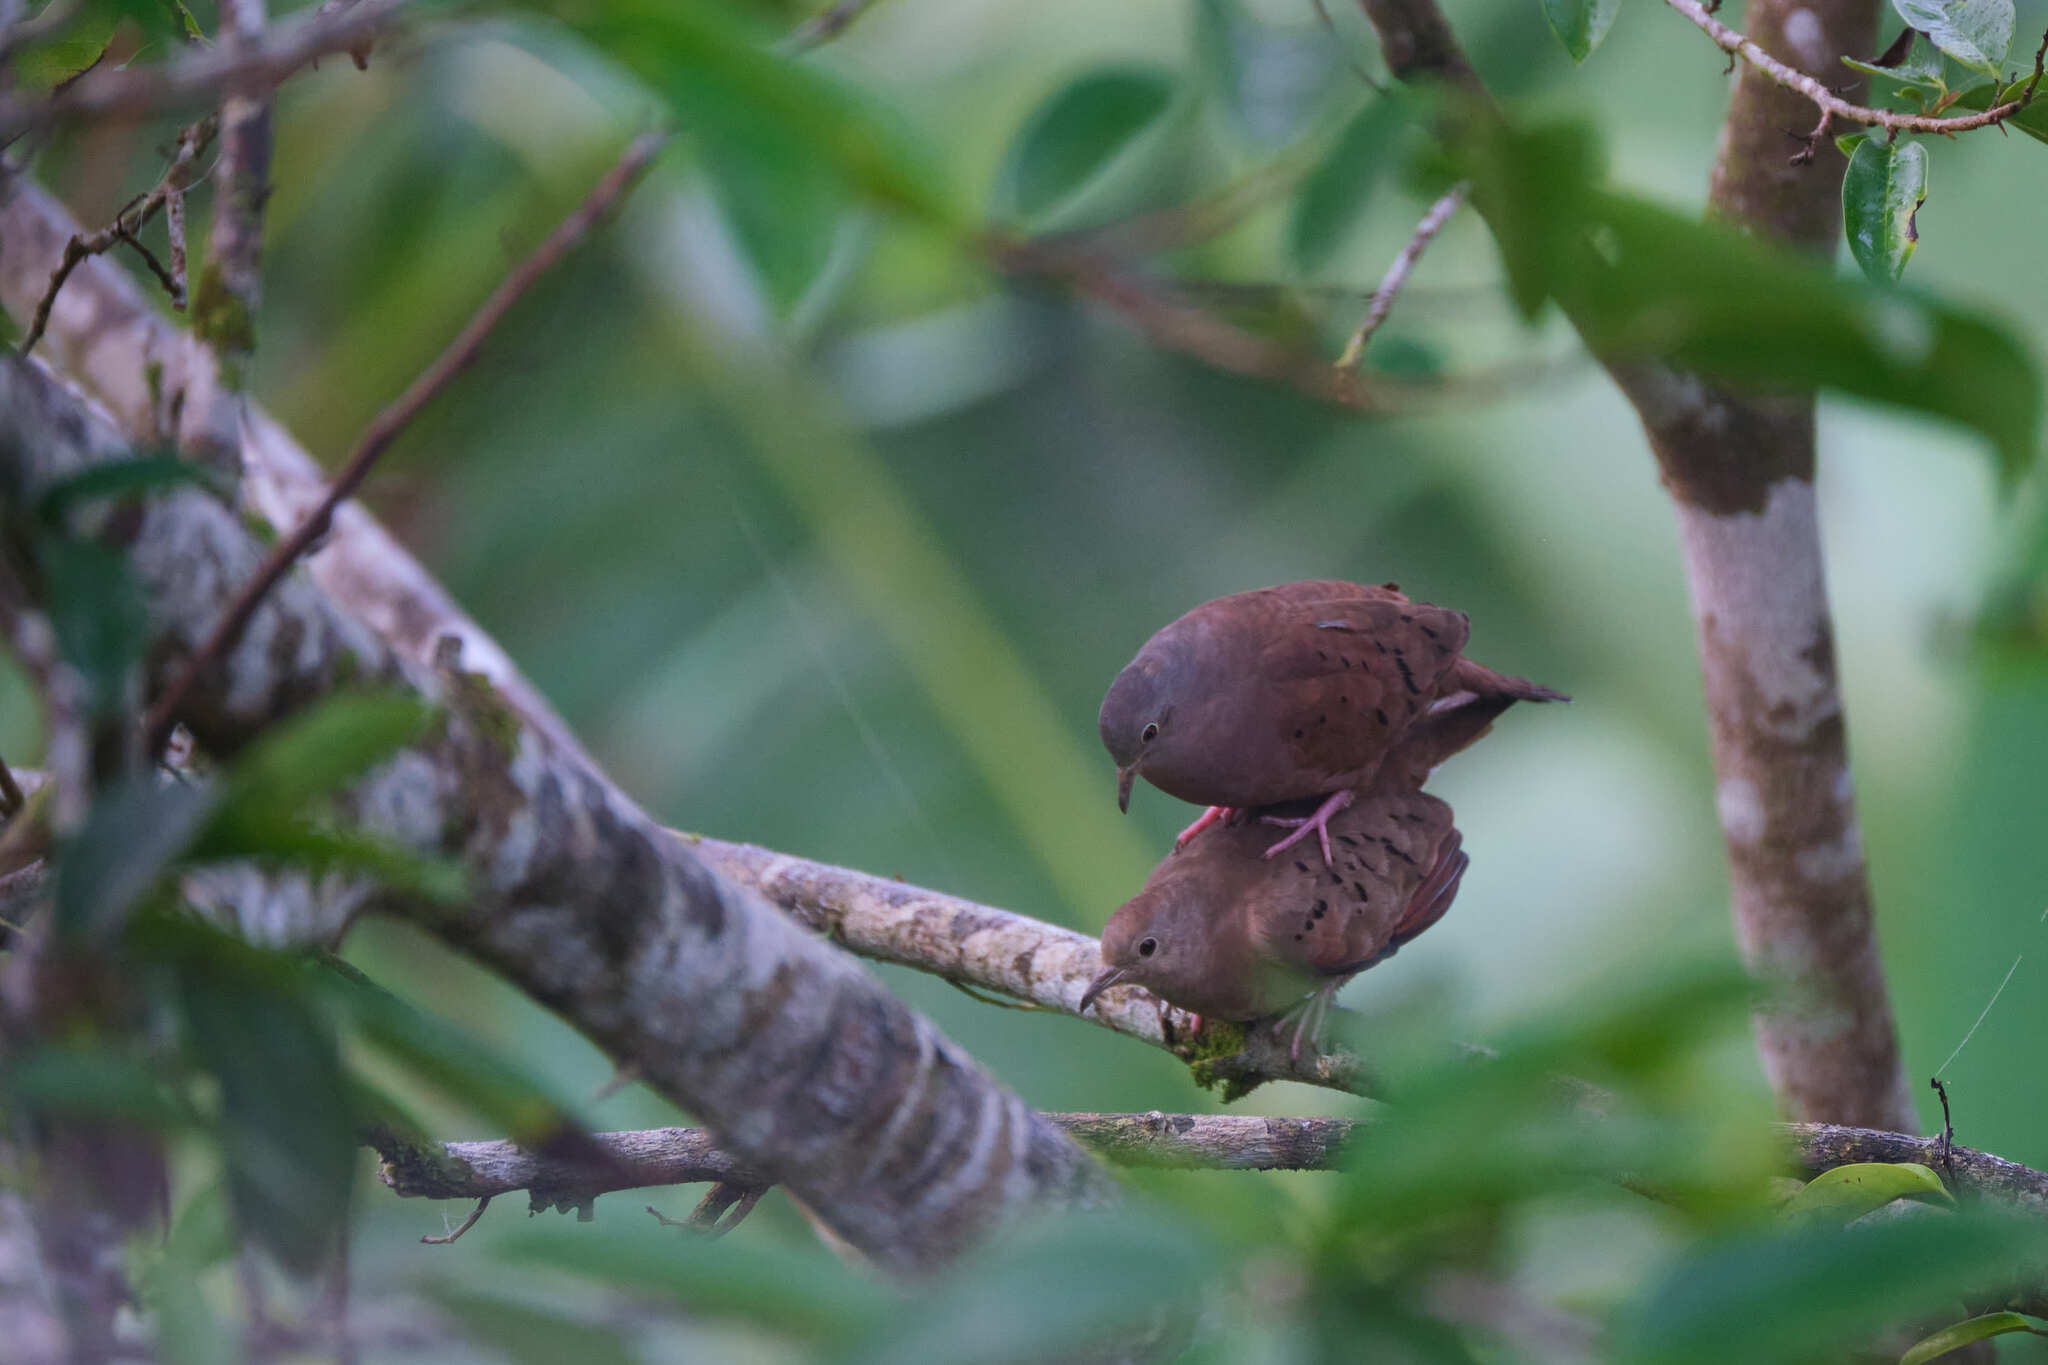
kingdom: Animalia
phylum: Chordata
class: Aves
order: Columbiformes
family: Columbidae
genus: Columbina
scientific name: Columbina talpacoti
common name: Ruddy ground dove
